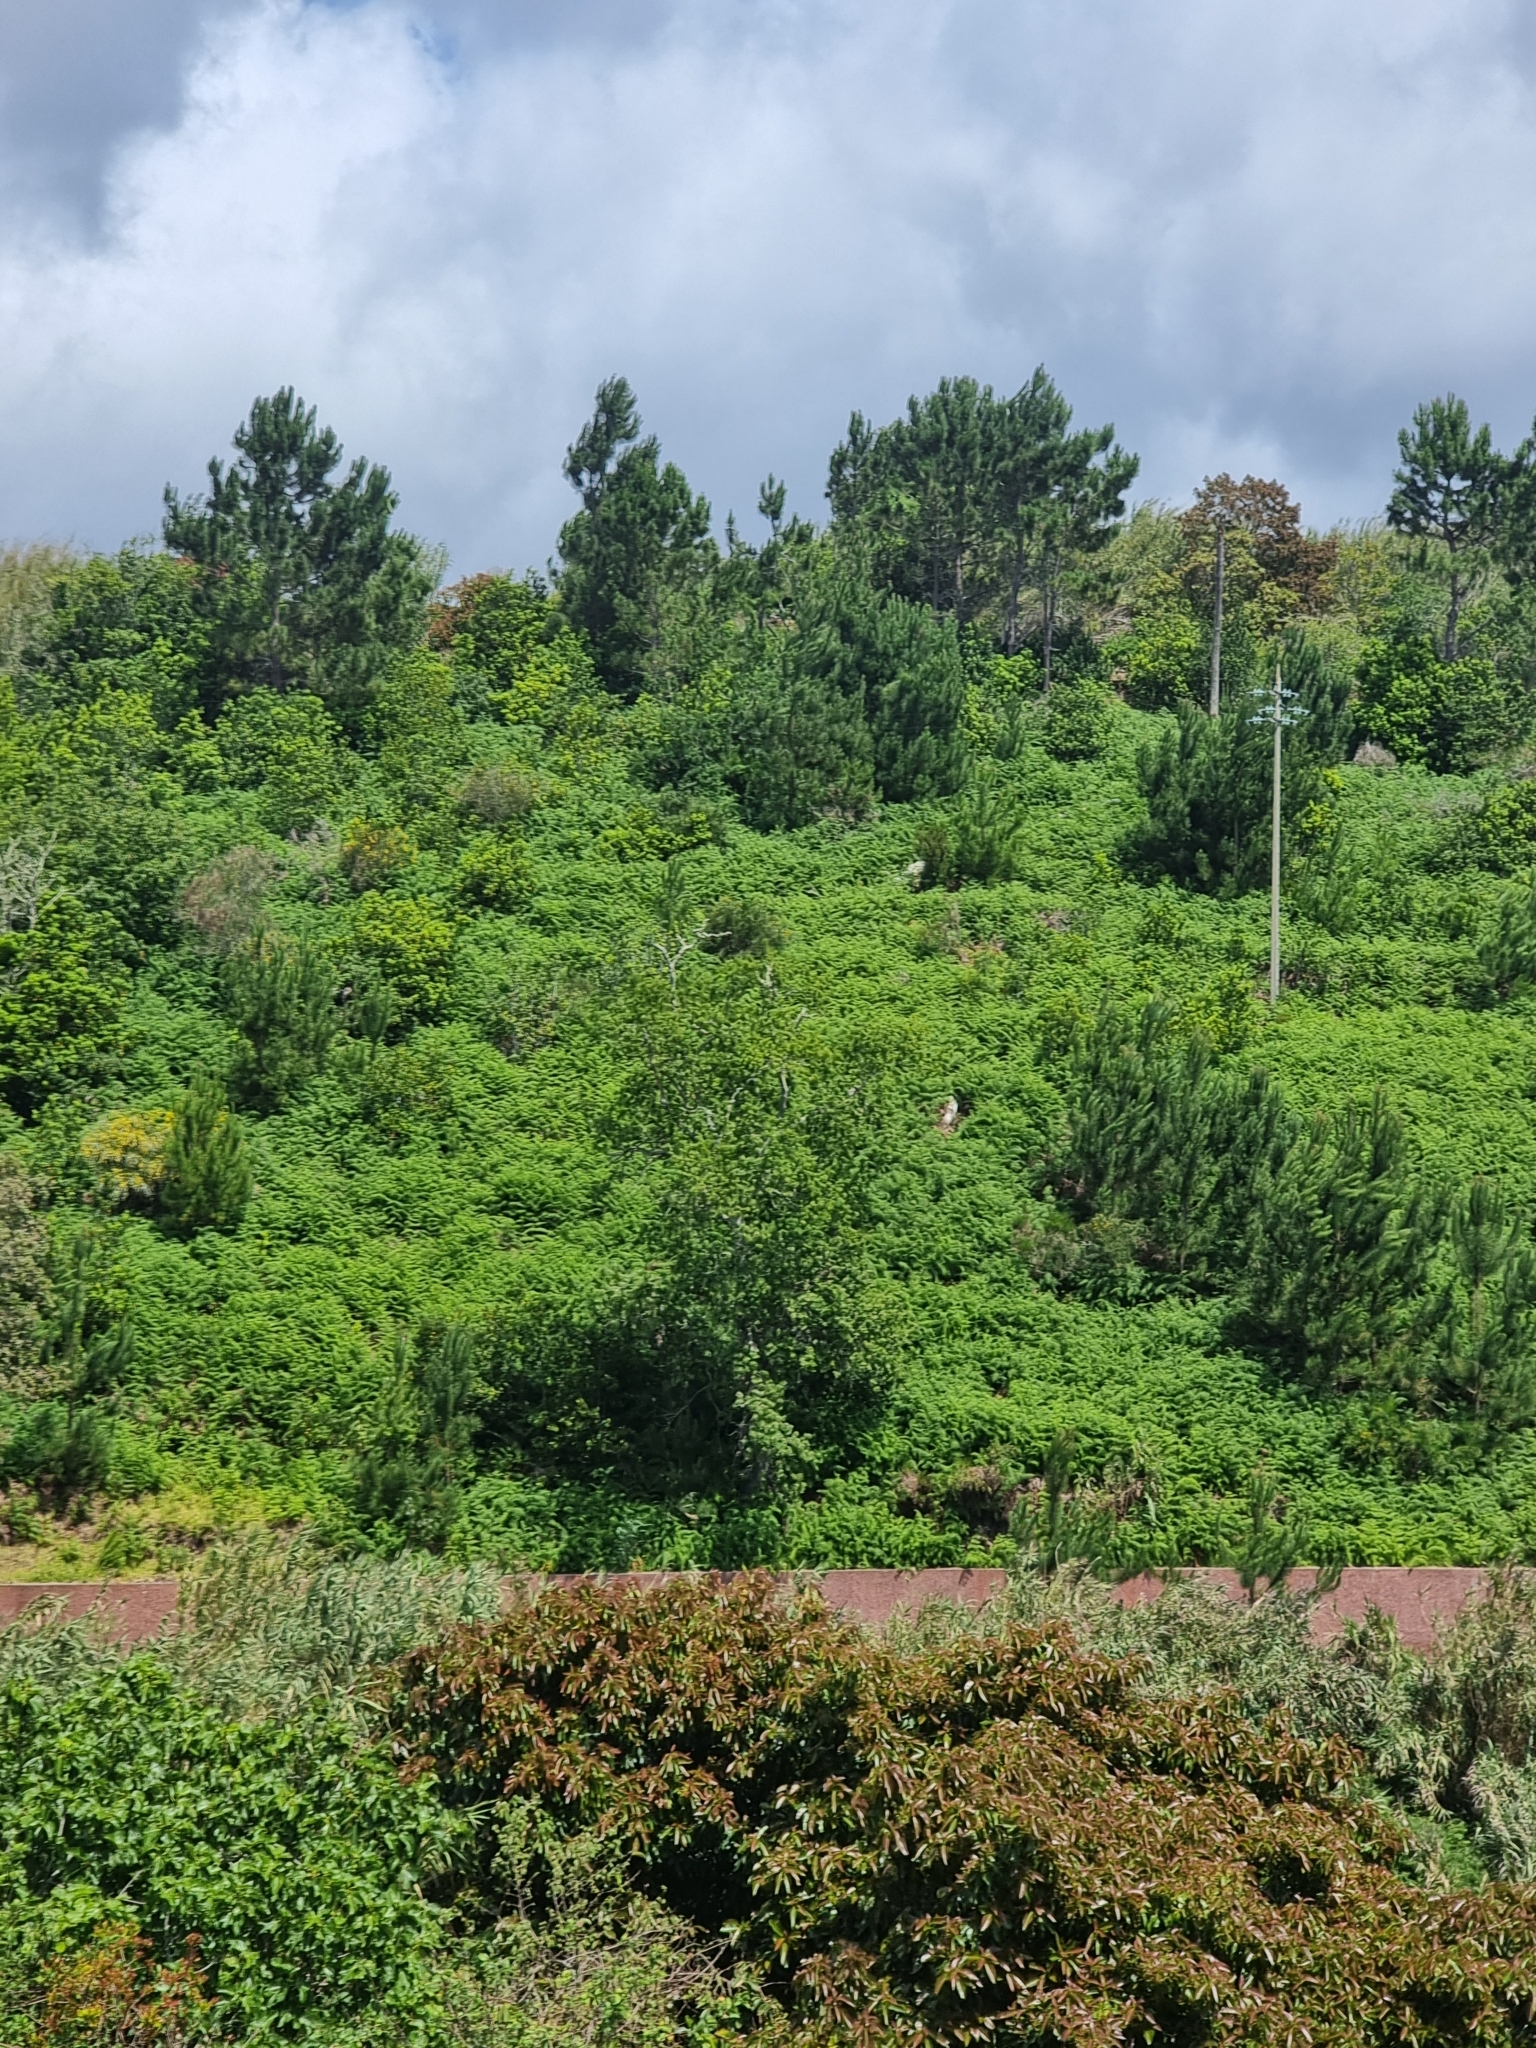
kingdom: Plantae
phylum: Tracheophyta
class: Polypodiopsida
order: Polypodiales
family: Dennstaedtiaceae
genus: Pteridium
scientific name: Pteridium aquilinum
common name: Bracken
